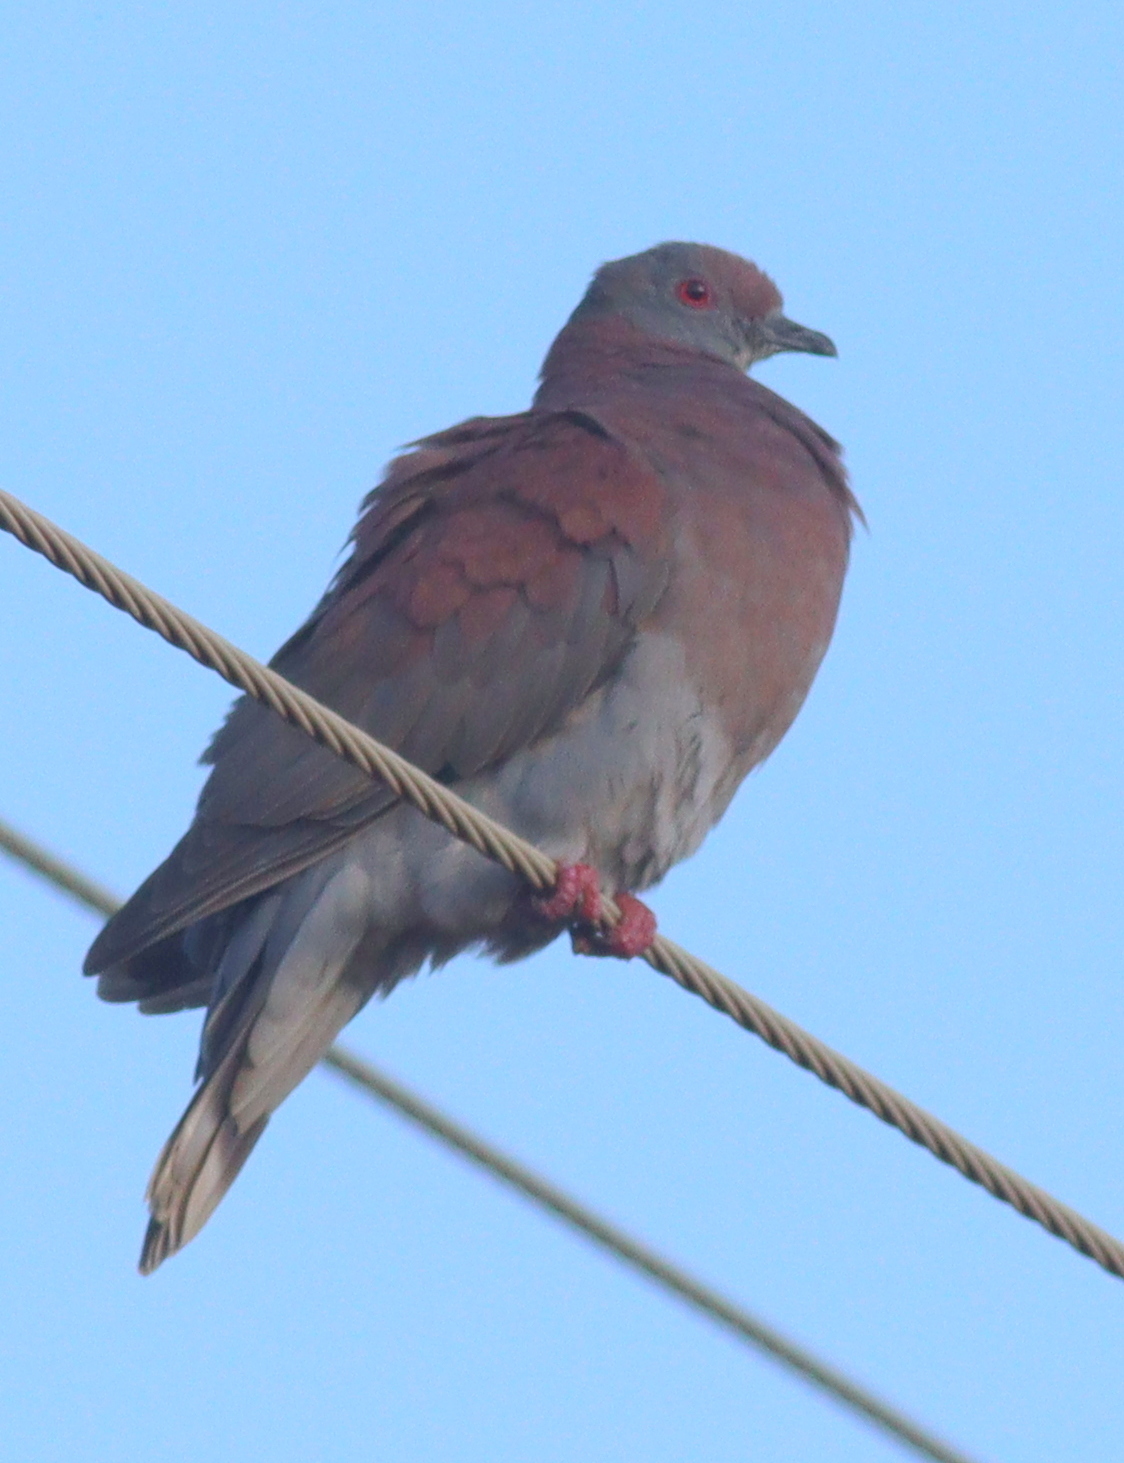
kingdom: Animalia
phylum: Chordata
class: Aves
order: Columbiformes
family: Columbidae
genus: Patagioenas
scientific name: Patagioenas cayennensis
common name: Pale-vented pigeon
